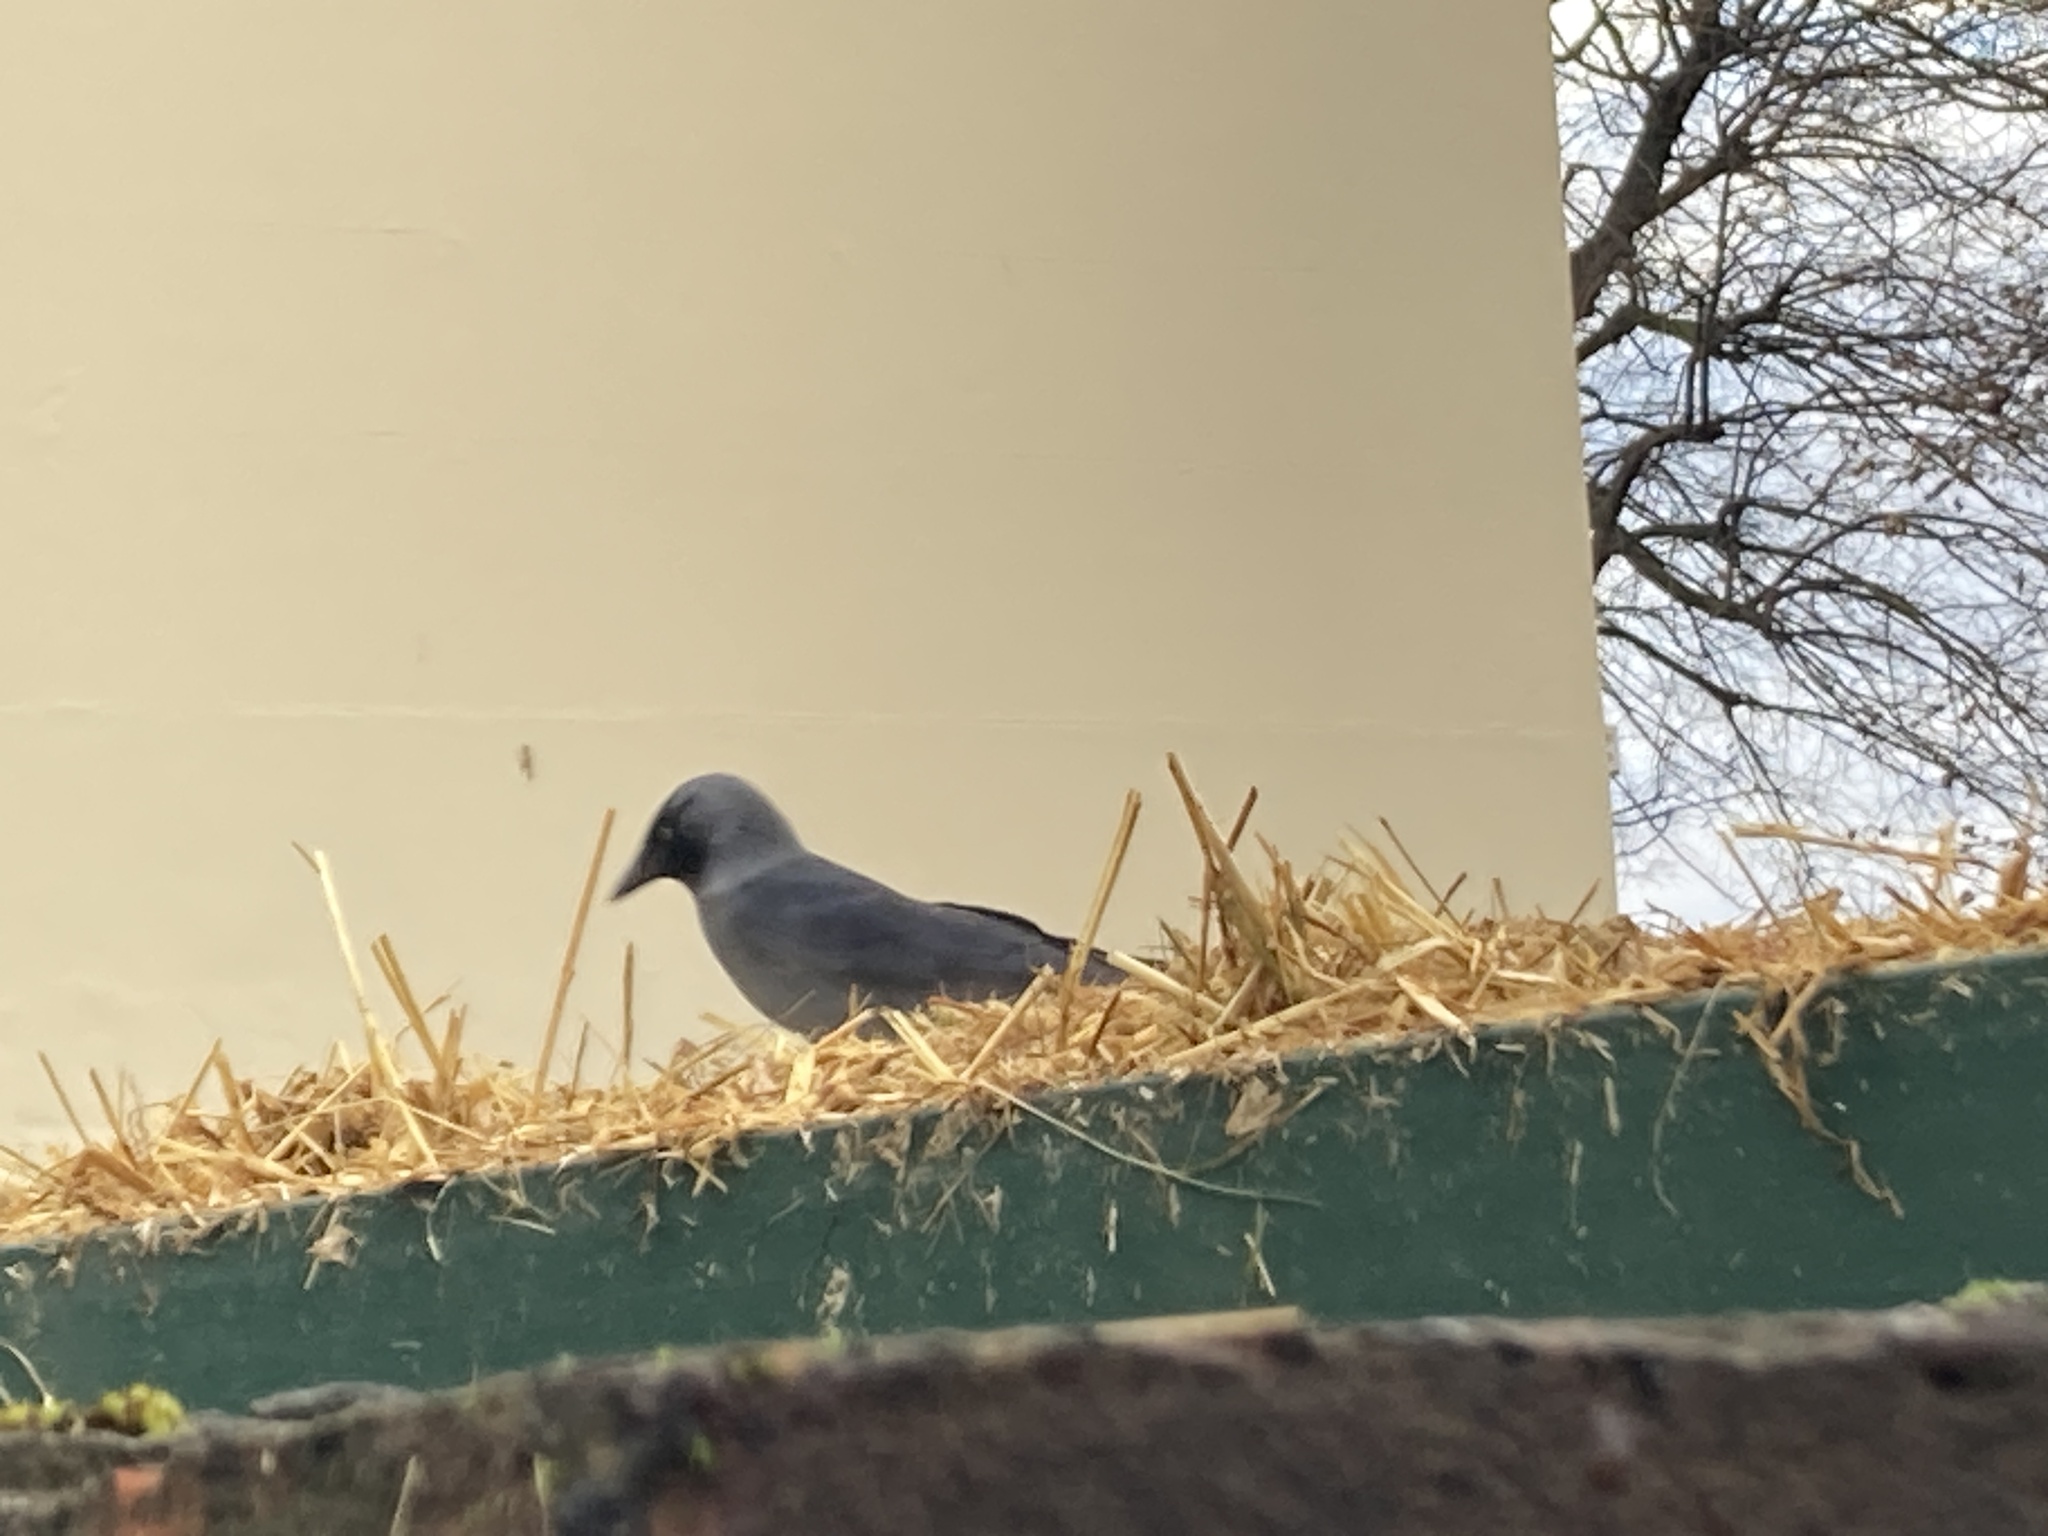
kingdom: Animalia
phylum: Chordata
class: Aves
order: Passeriformes
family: Corvidae
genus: Coloeus
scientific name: Coloeus monedula
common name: Western jackdaw
